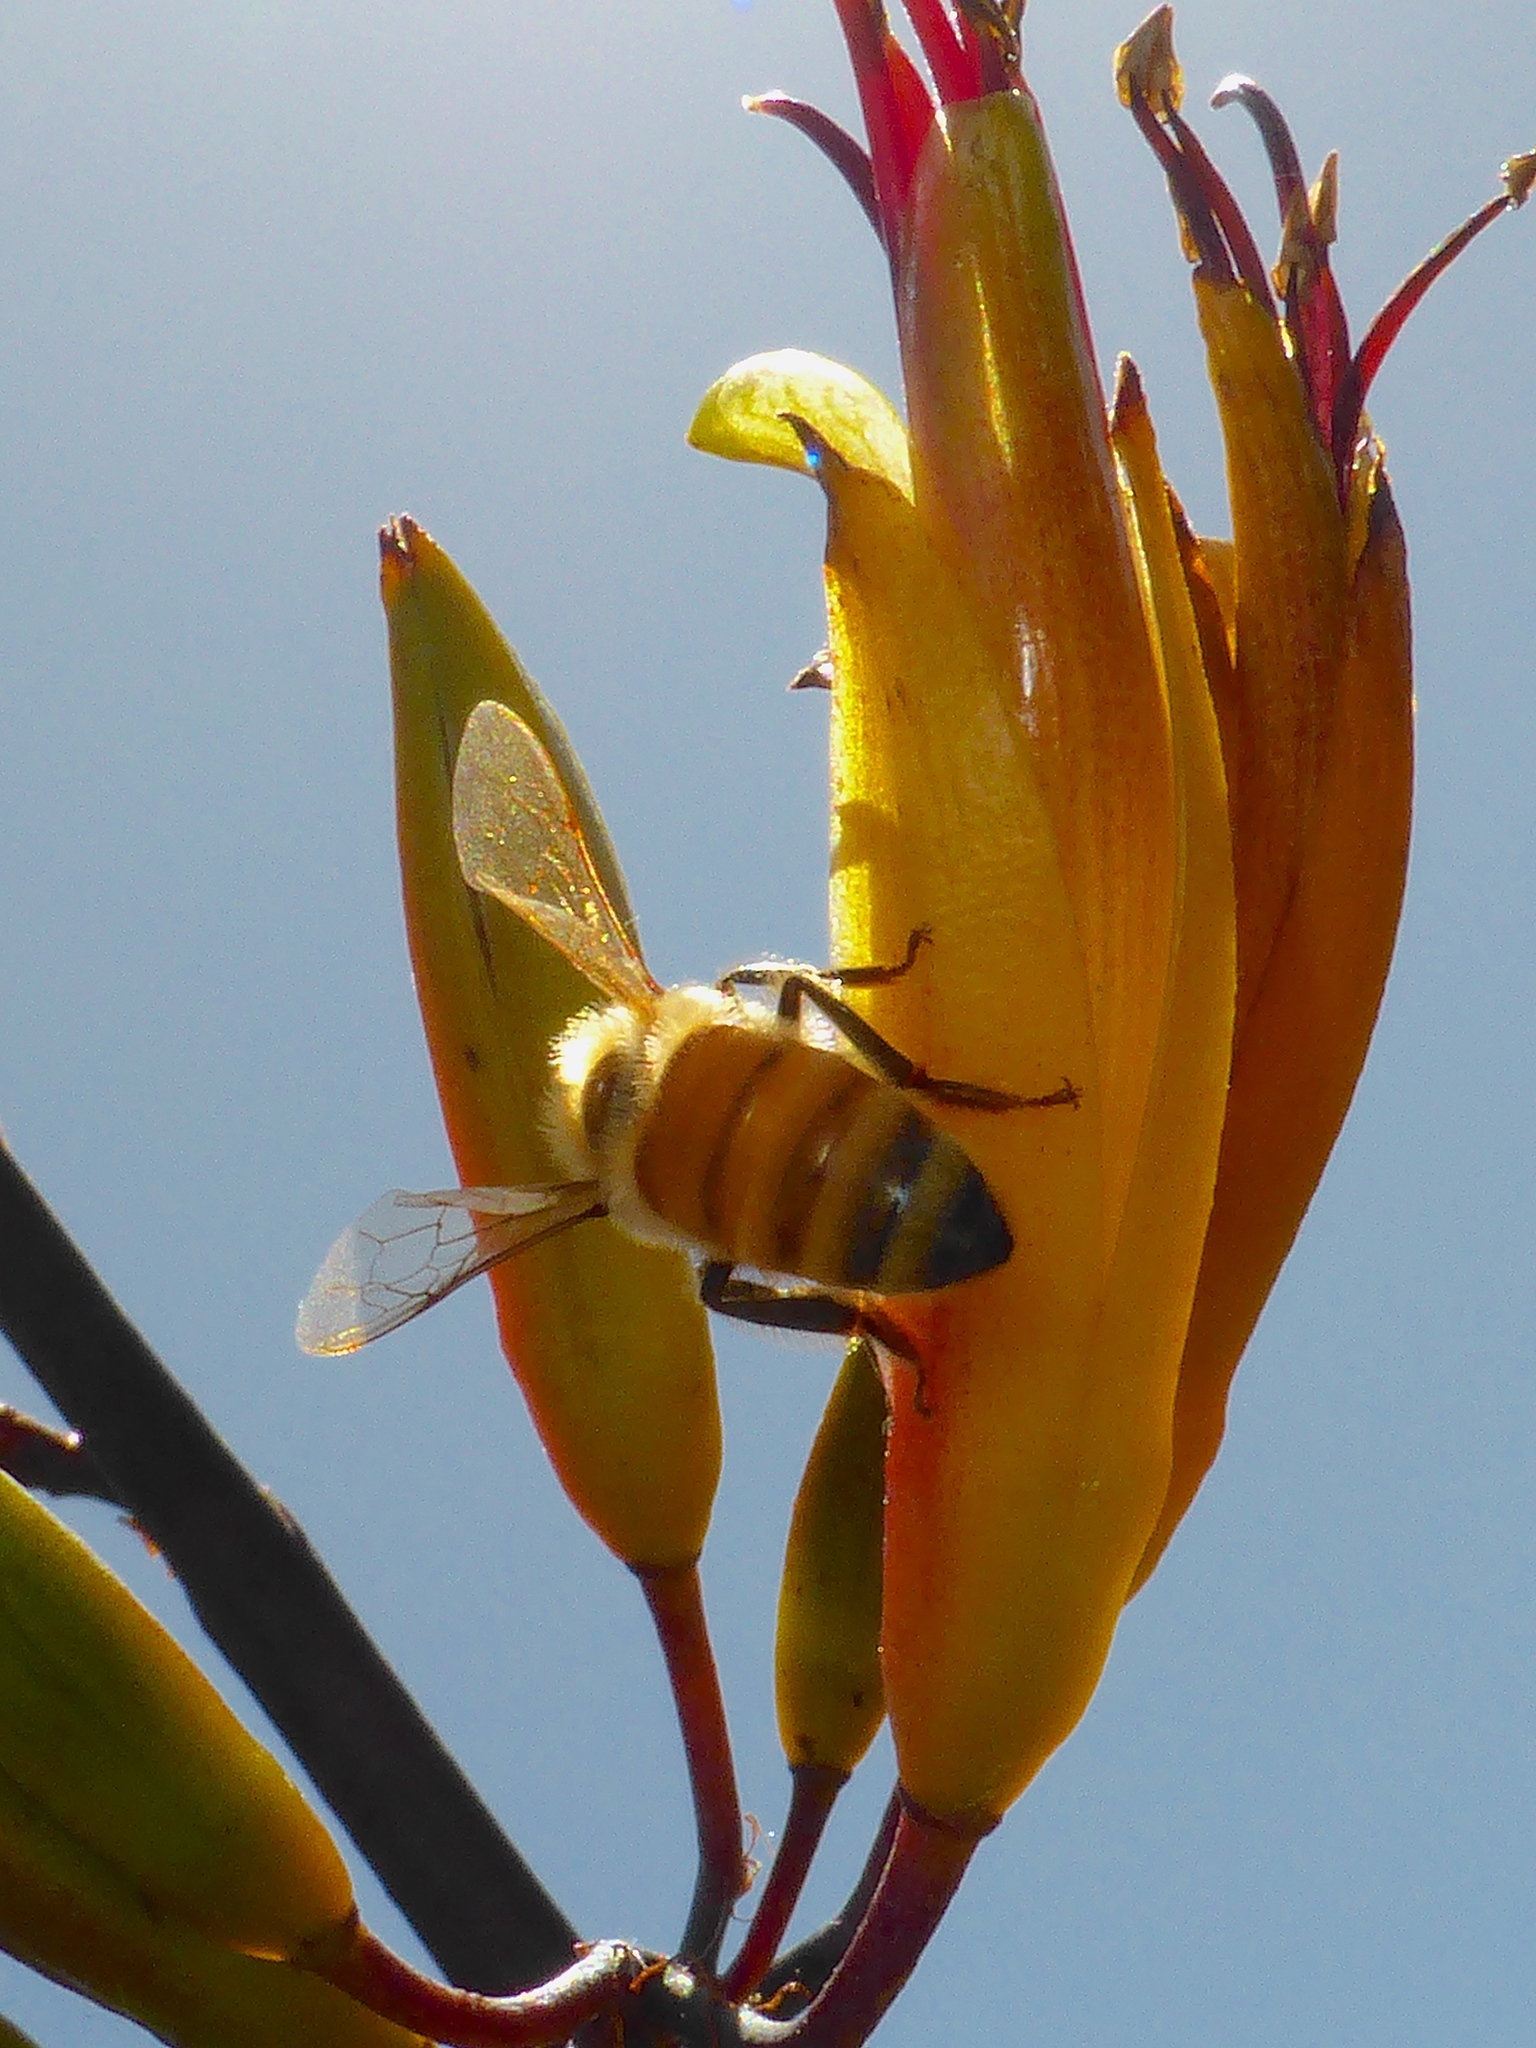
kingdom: Animalia
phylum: Arthropoda
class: Insecta
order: Hymenoptera
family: Apidae
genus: Apis
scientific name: Apis mellifera
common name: Honey bee
